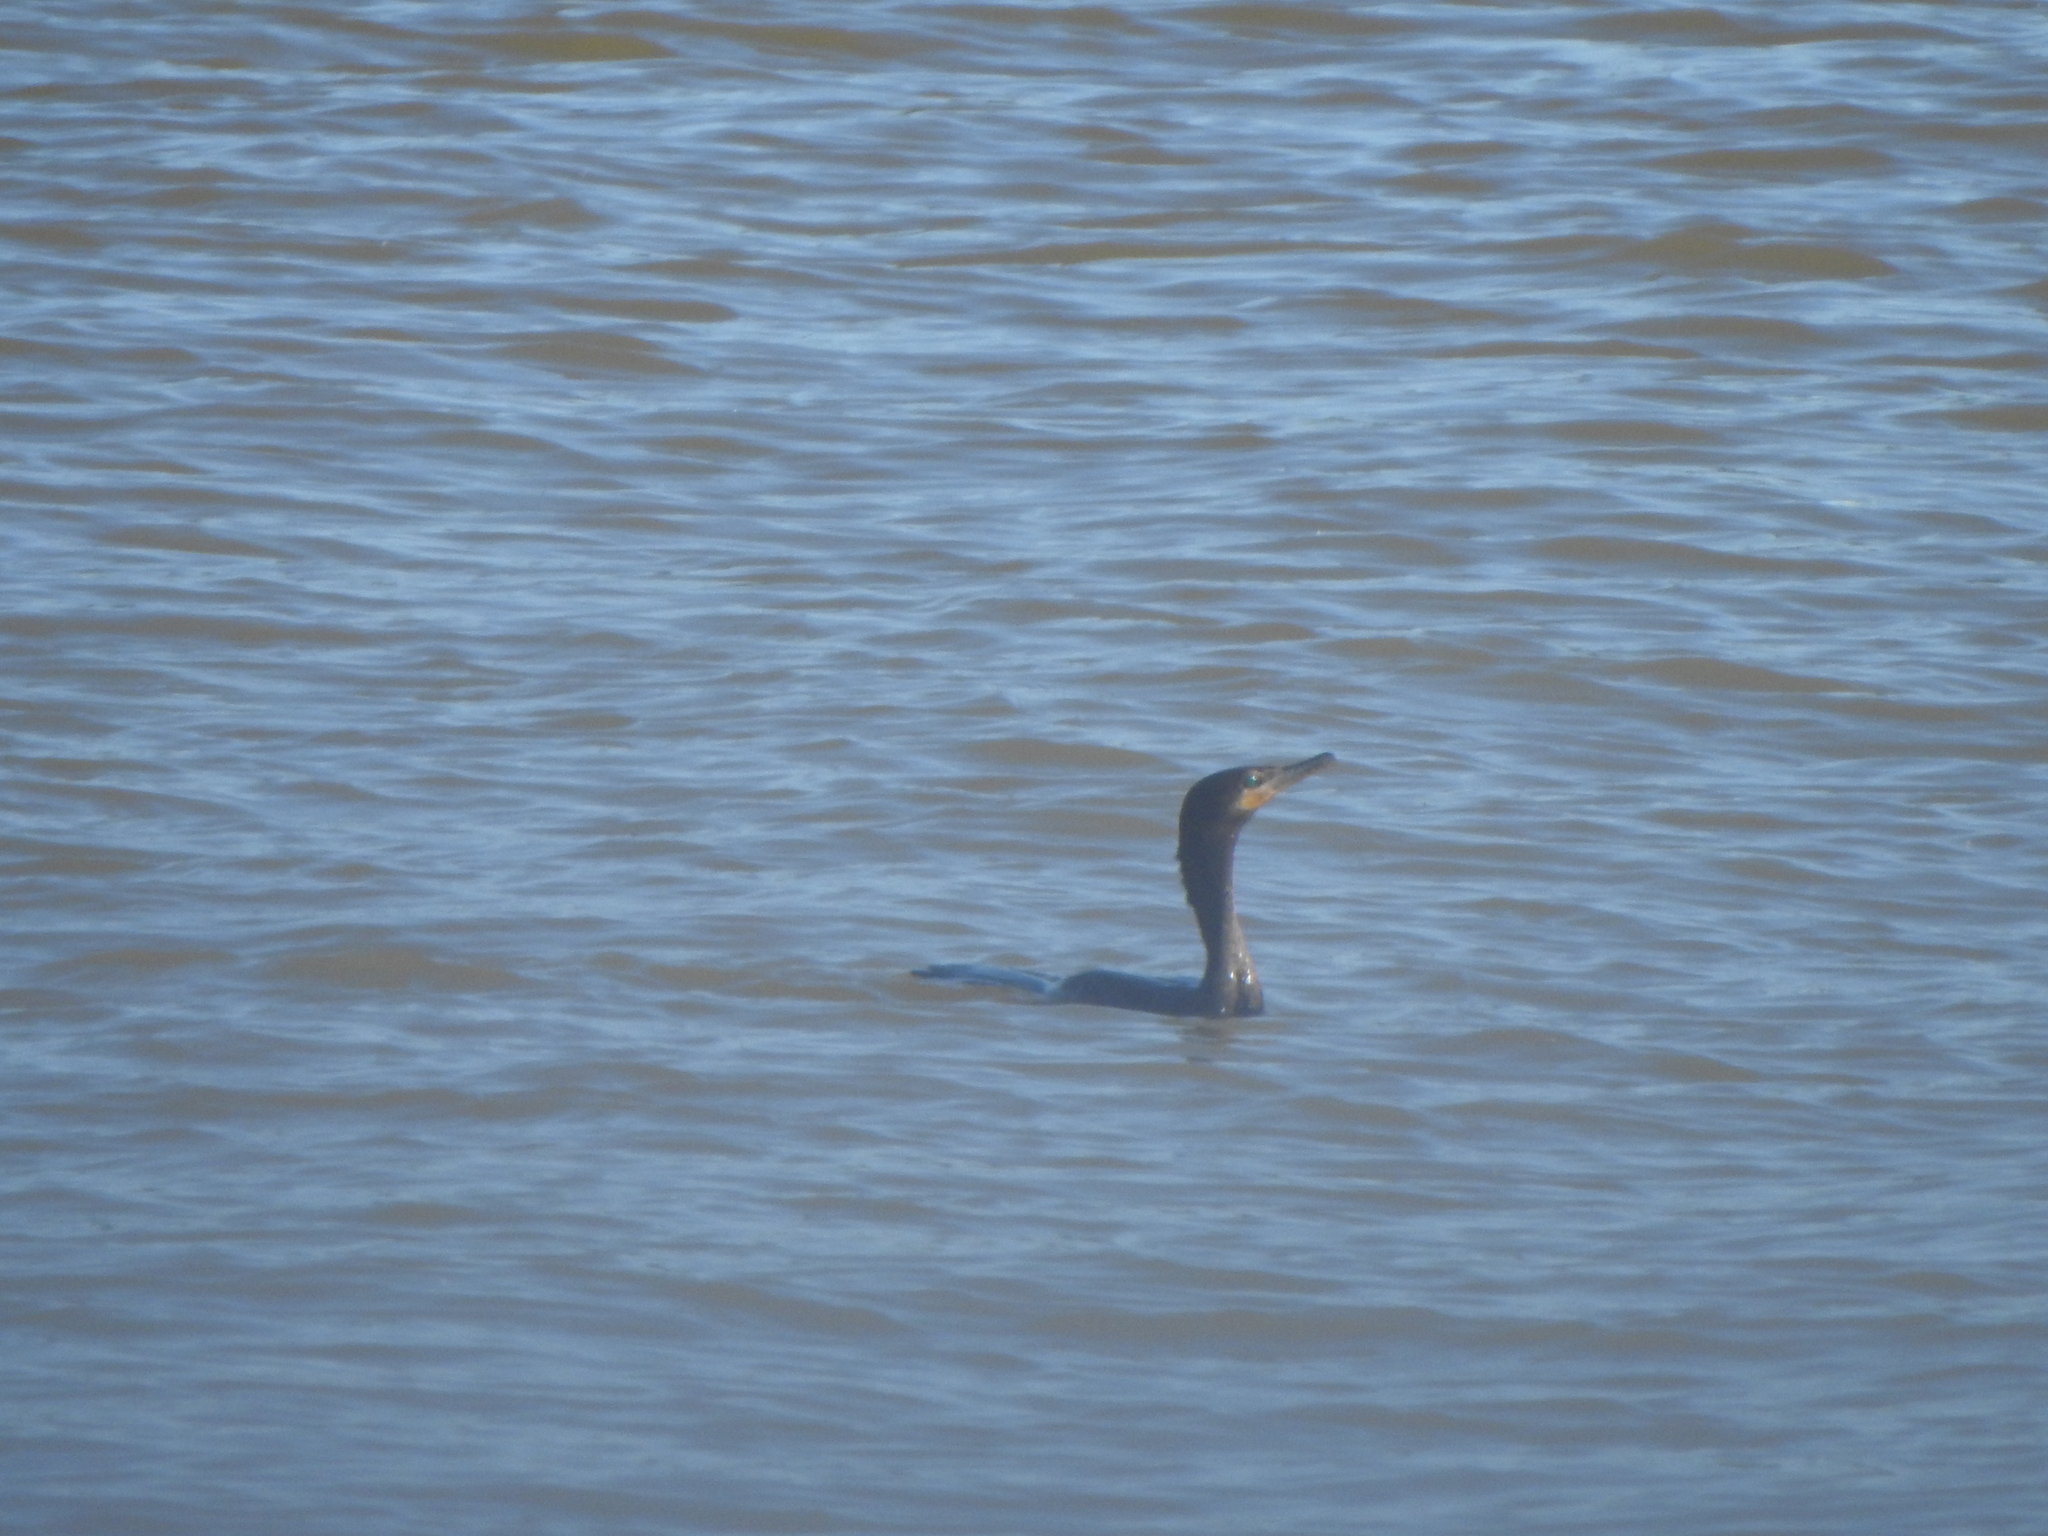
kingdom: Animalia
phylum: Chordata
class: Aves
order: Suliformes
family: Phalacrocoracidae
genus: Phalacrocorax
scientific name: Phalacrocorax brasilianus
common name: Neotropic cormorant
